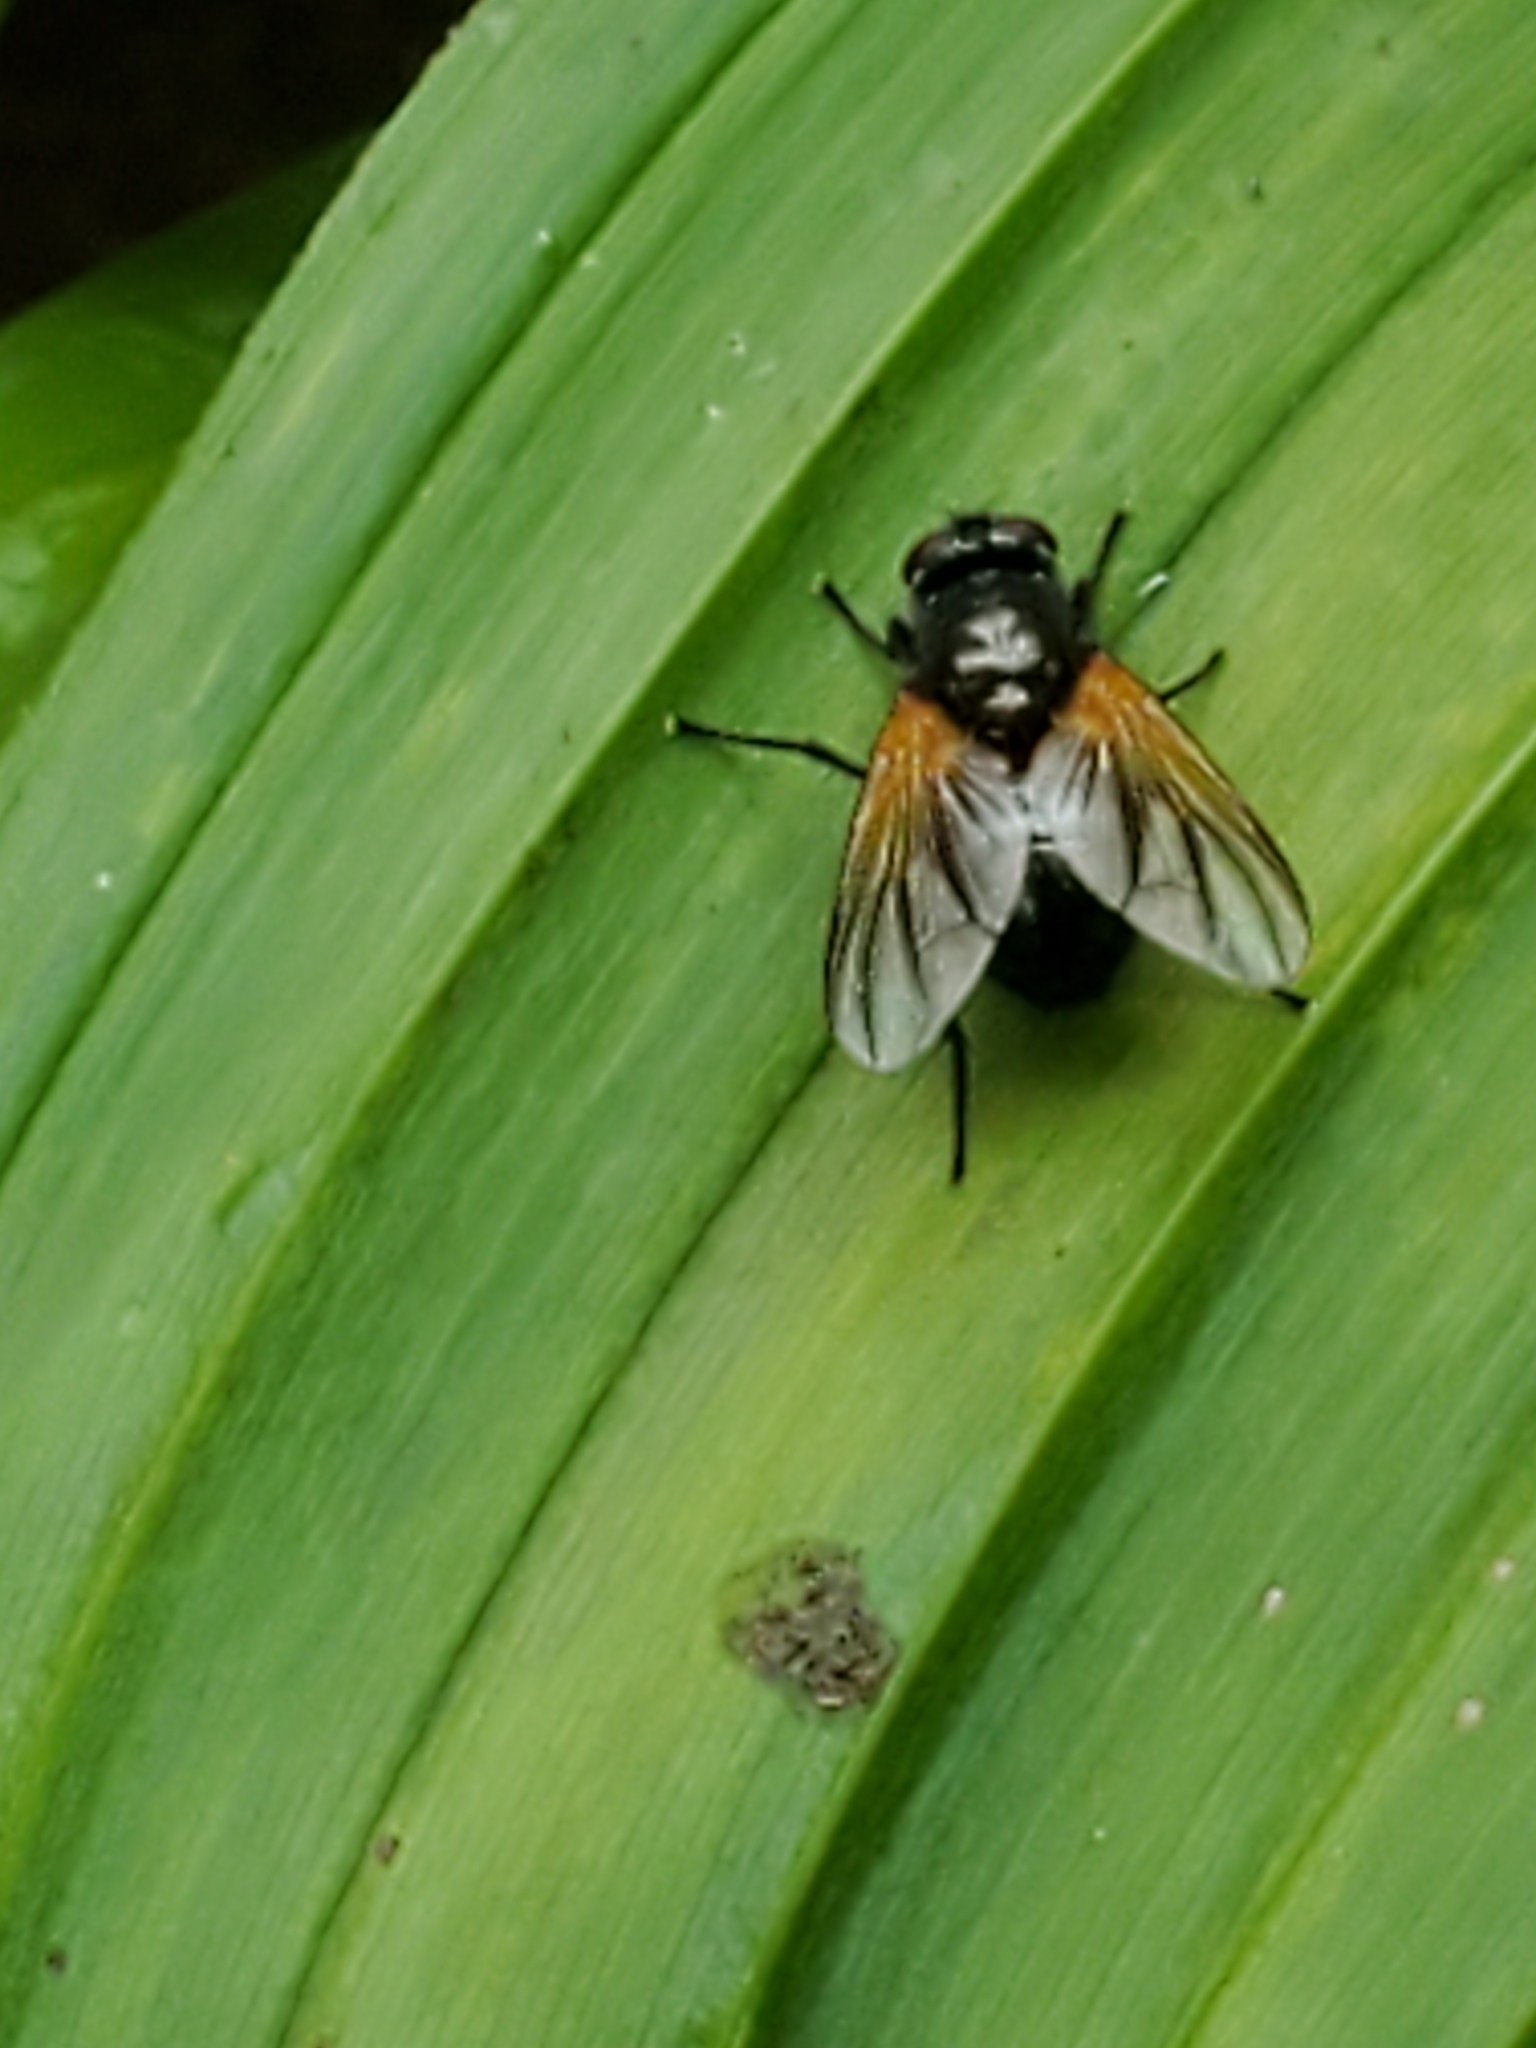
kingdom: Animalia
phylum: Arthropoda
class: Insecta
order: Diptera
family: Muscidae
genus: Mesembrina
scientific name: Mesembrina latreillii
